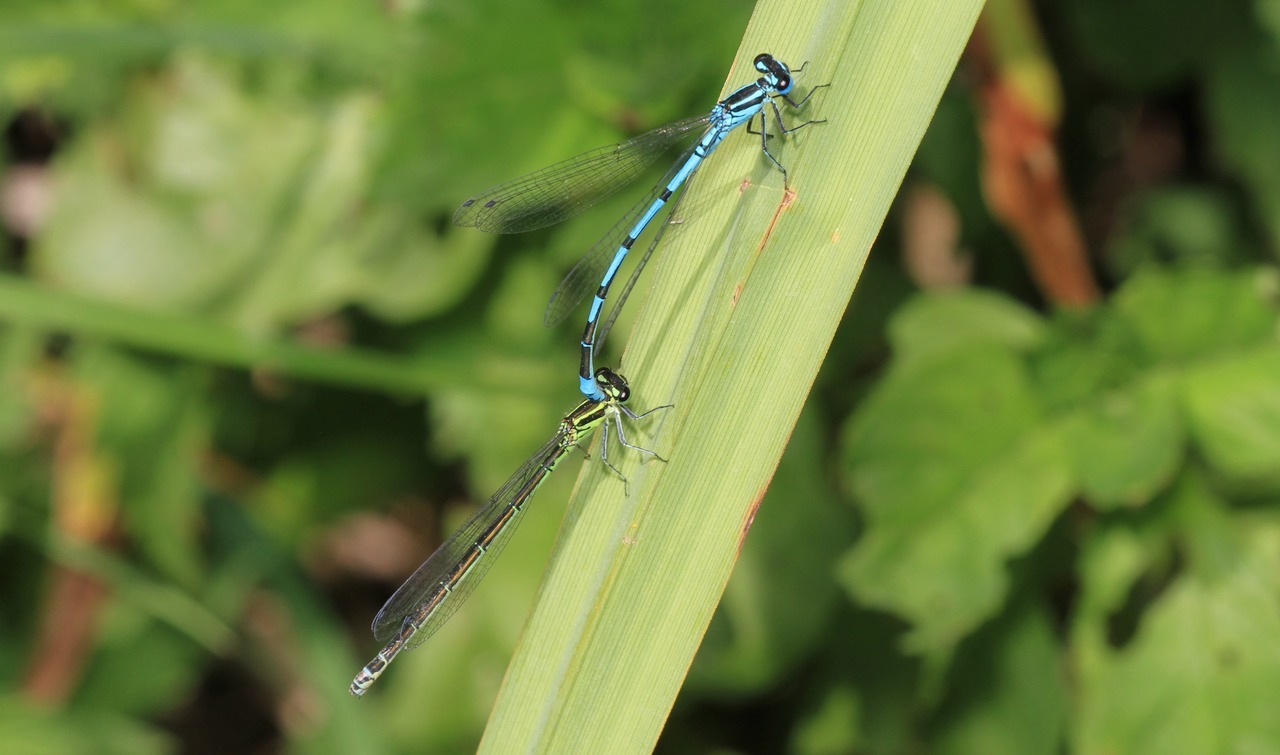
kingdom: Animalia
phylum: Arthropoda
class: Insecta
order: Odonata
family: Coenagrionidae
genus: Coenagrion
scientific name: Coenagrion puella
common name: Azure damselfly
